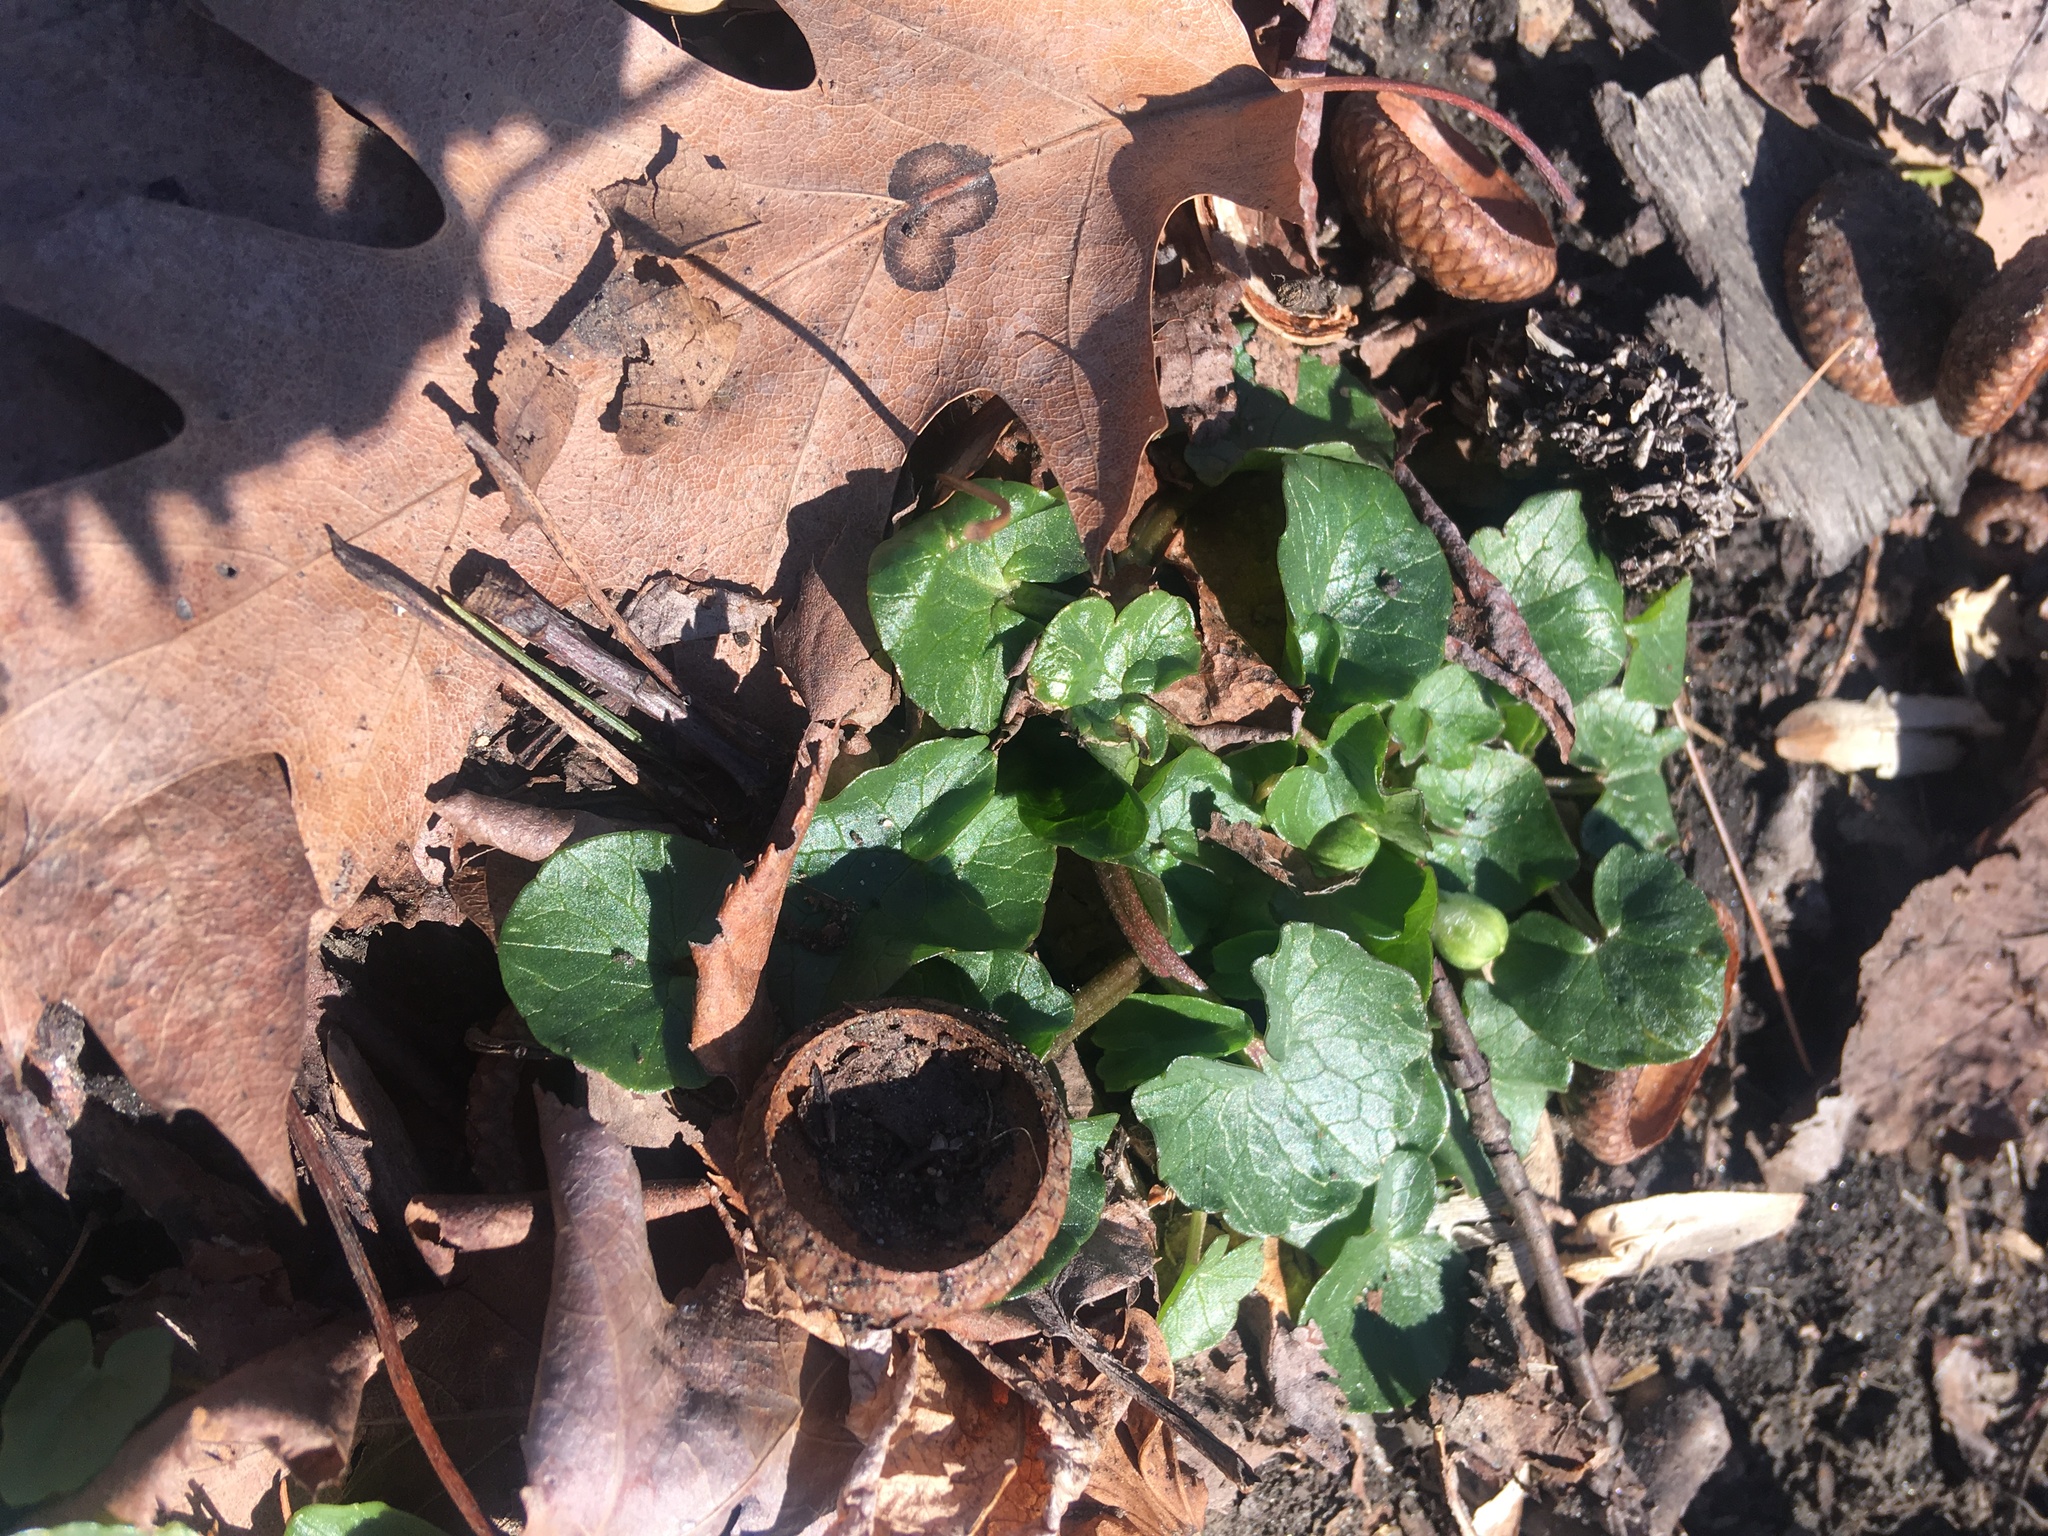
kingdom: Plantae
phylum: Tracheophyta
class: Magnoliopsida
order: Ranunculales
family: Ranunculaceae
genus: Ficaria
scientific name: Ficaria verna
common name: Lesser celandine
